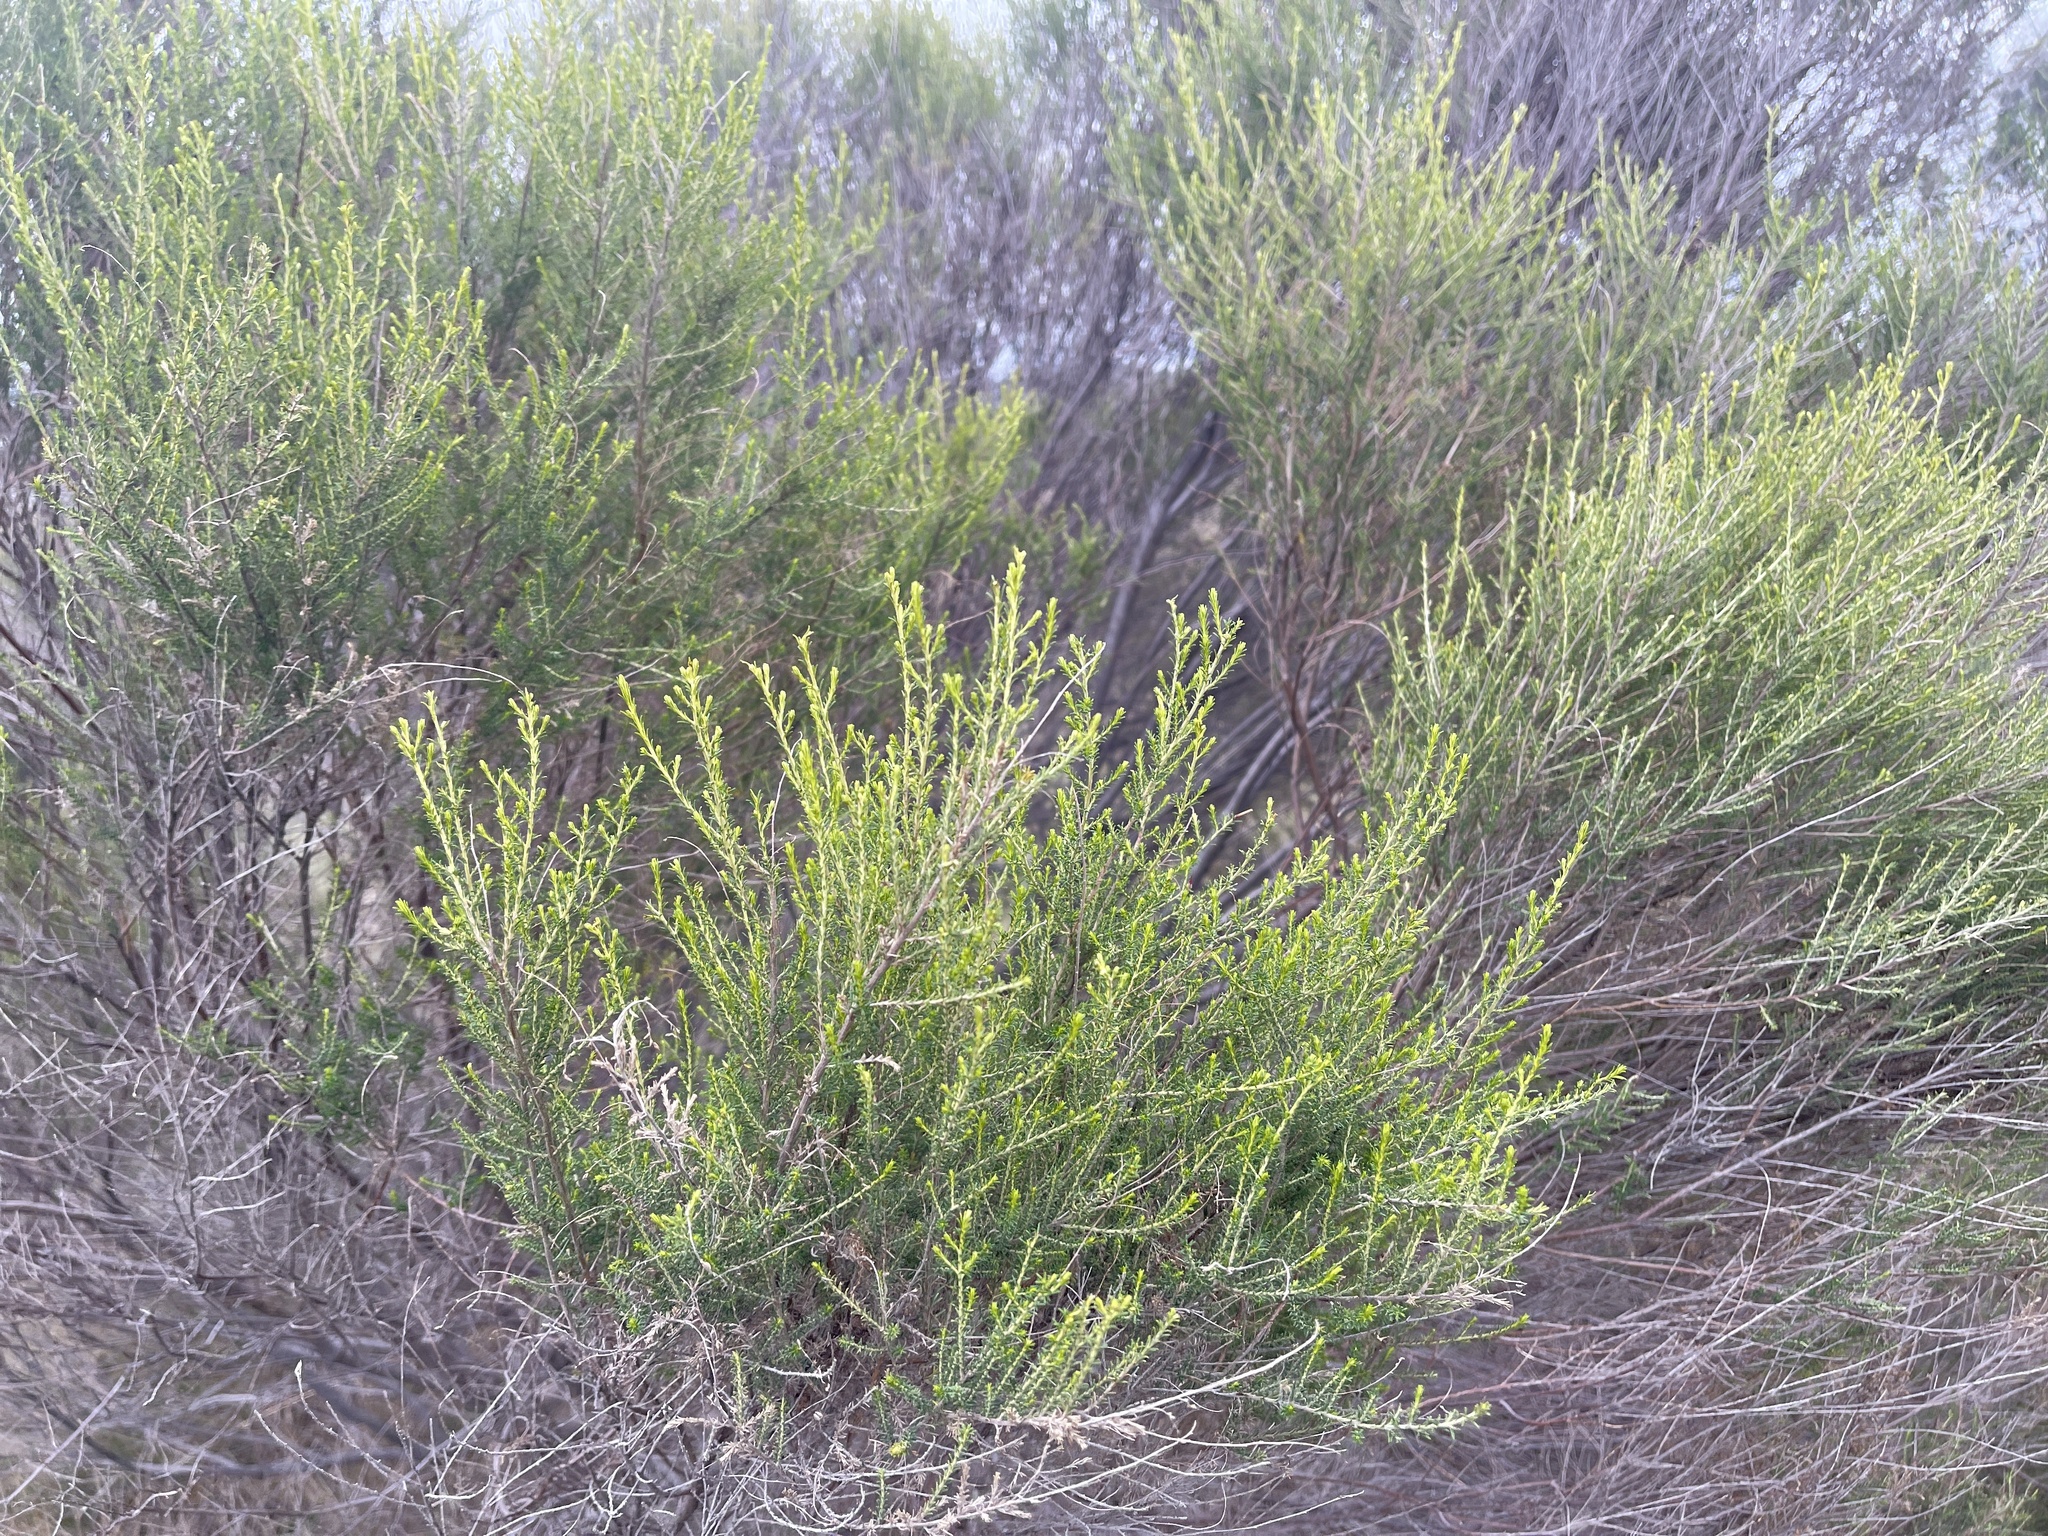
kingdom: Plantae
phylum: Tracheophyta
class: Magnoliopsida
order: Asterales
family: Asteraceae
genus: Cassinia
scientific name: Cassinia sifton
